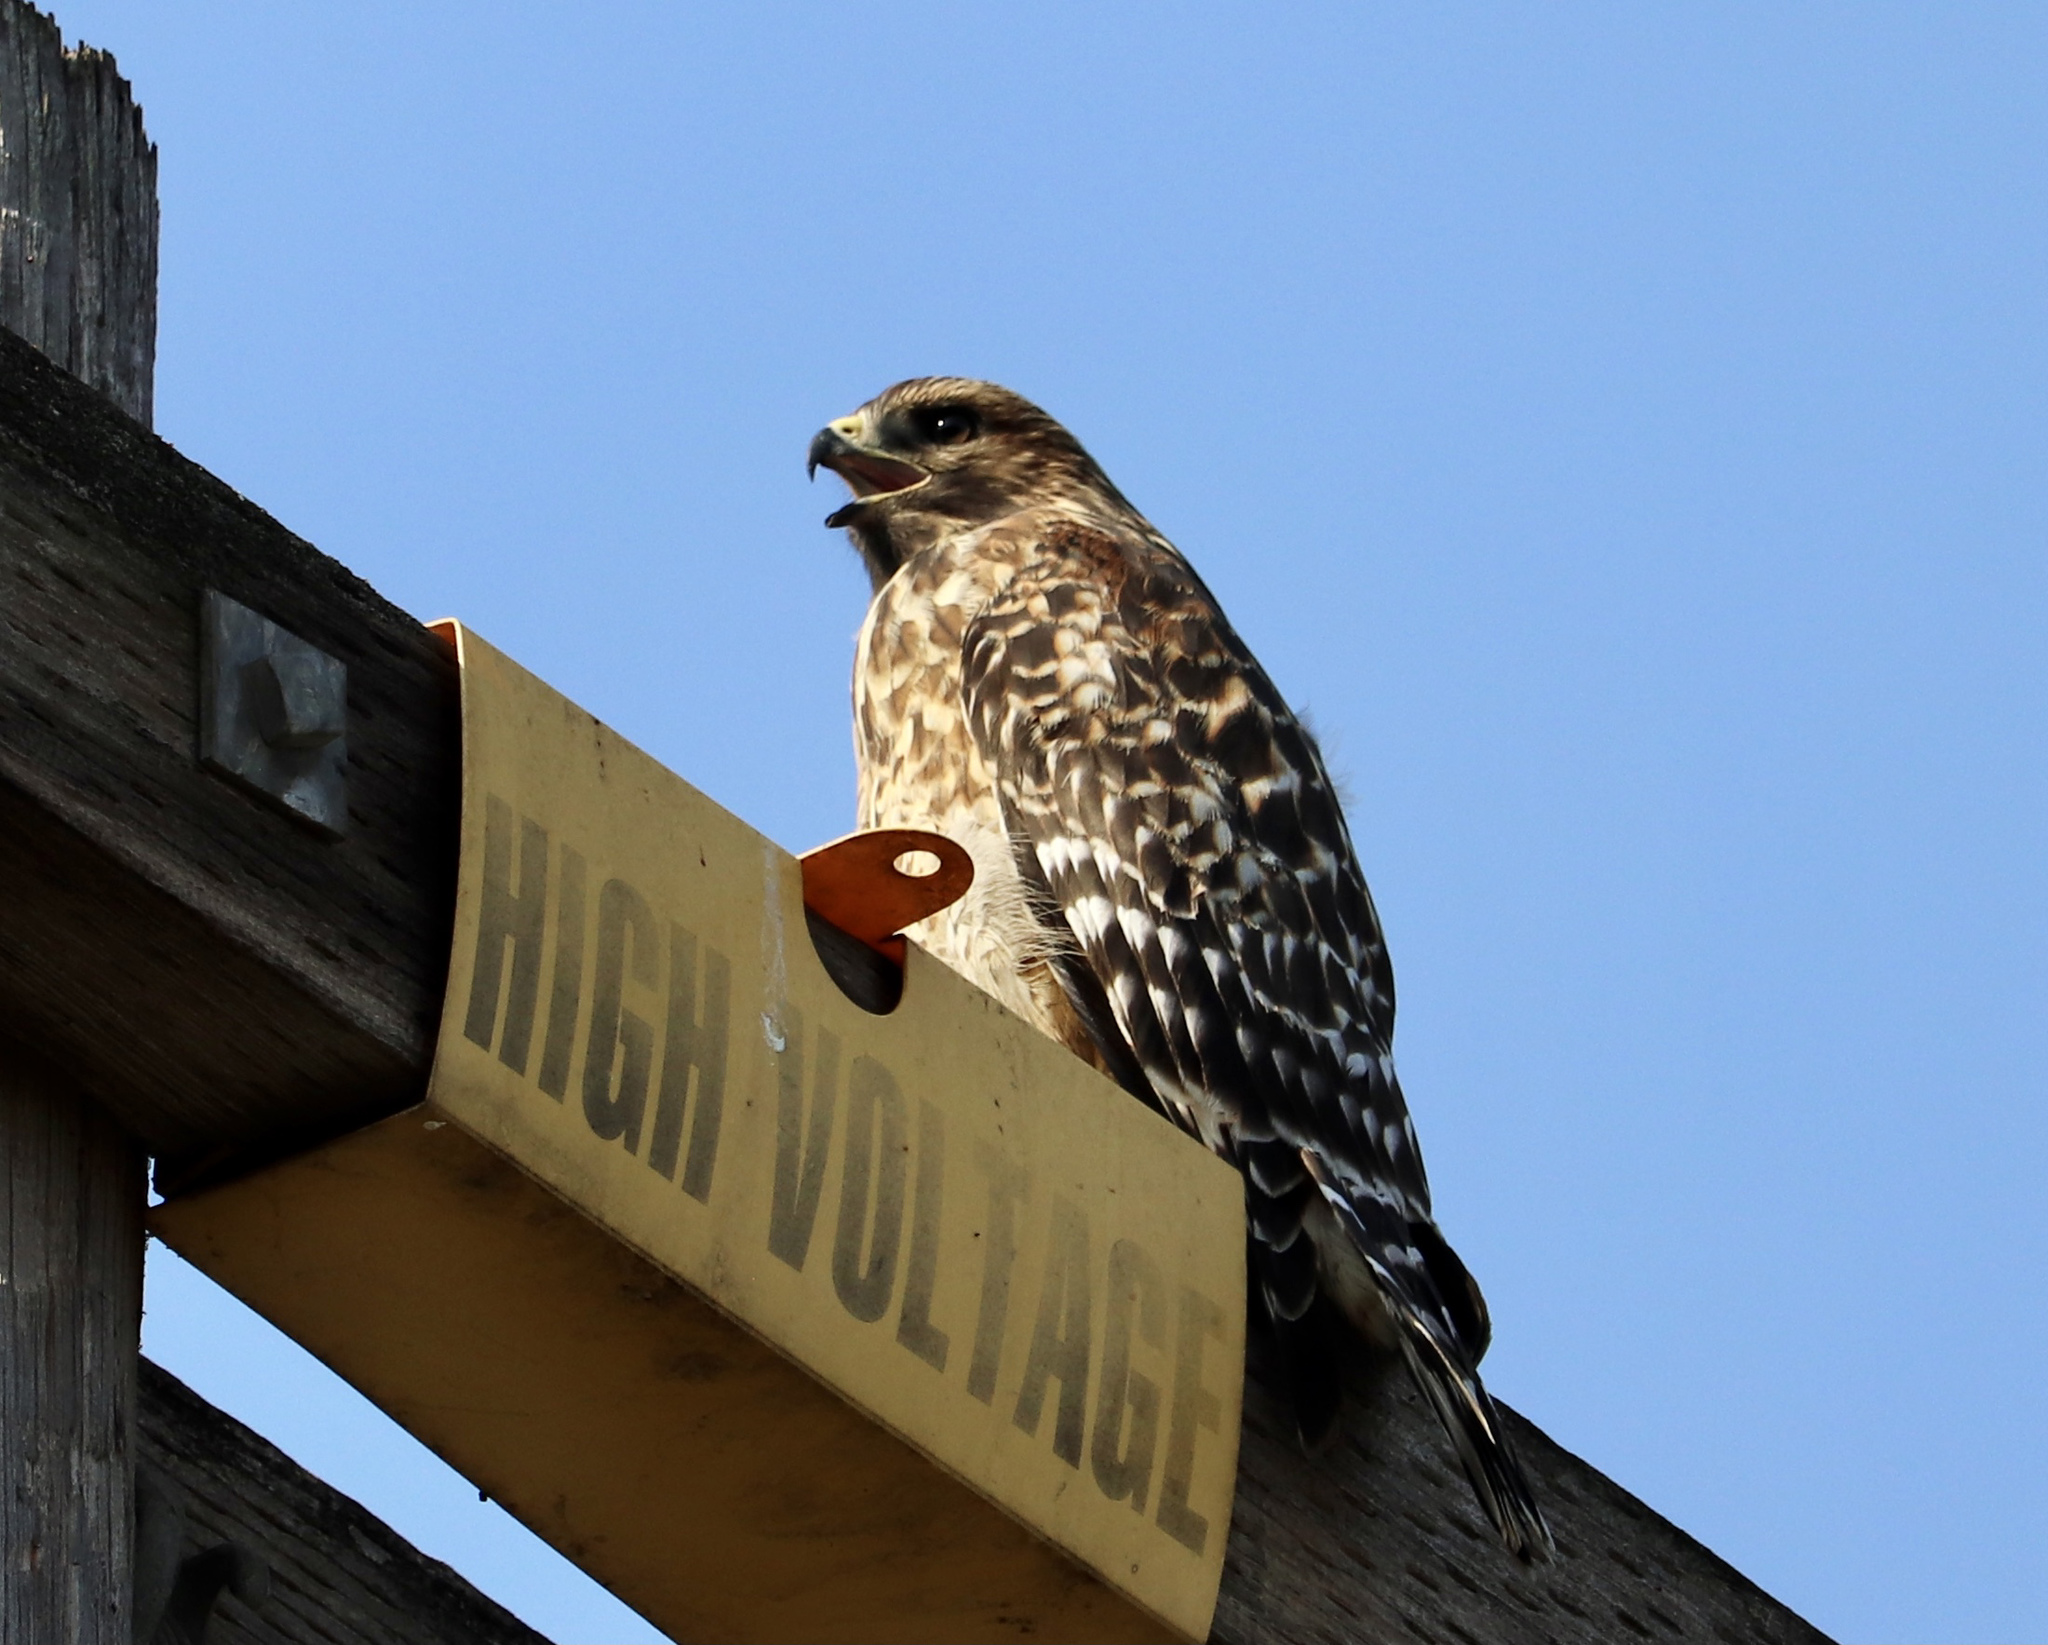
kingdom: Animalia
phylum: Chordata
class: Aves
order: Accipitriformes
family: Accipitridae
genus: Buteo
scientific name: Buteo lineatus
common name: Red-shouldered hawk
